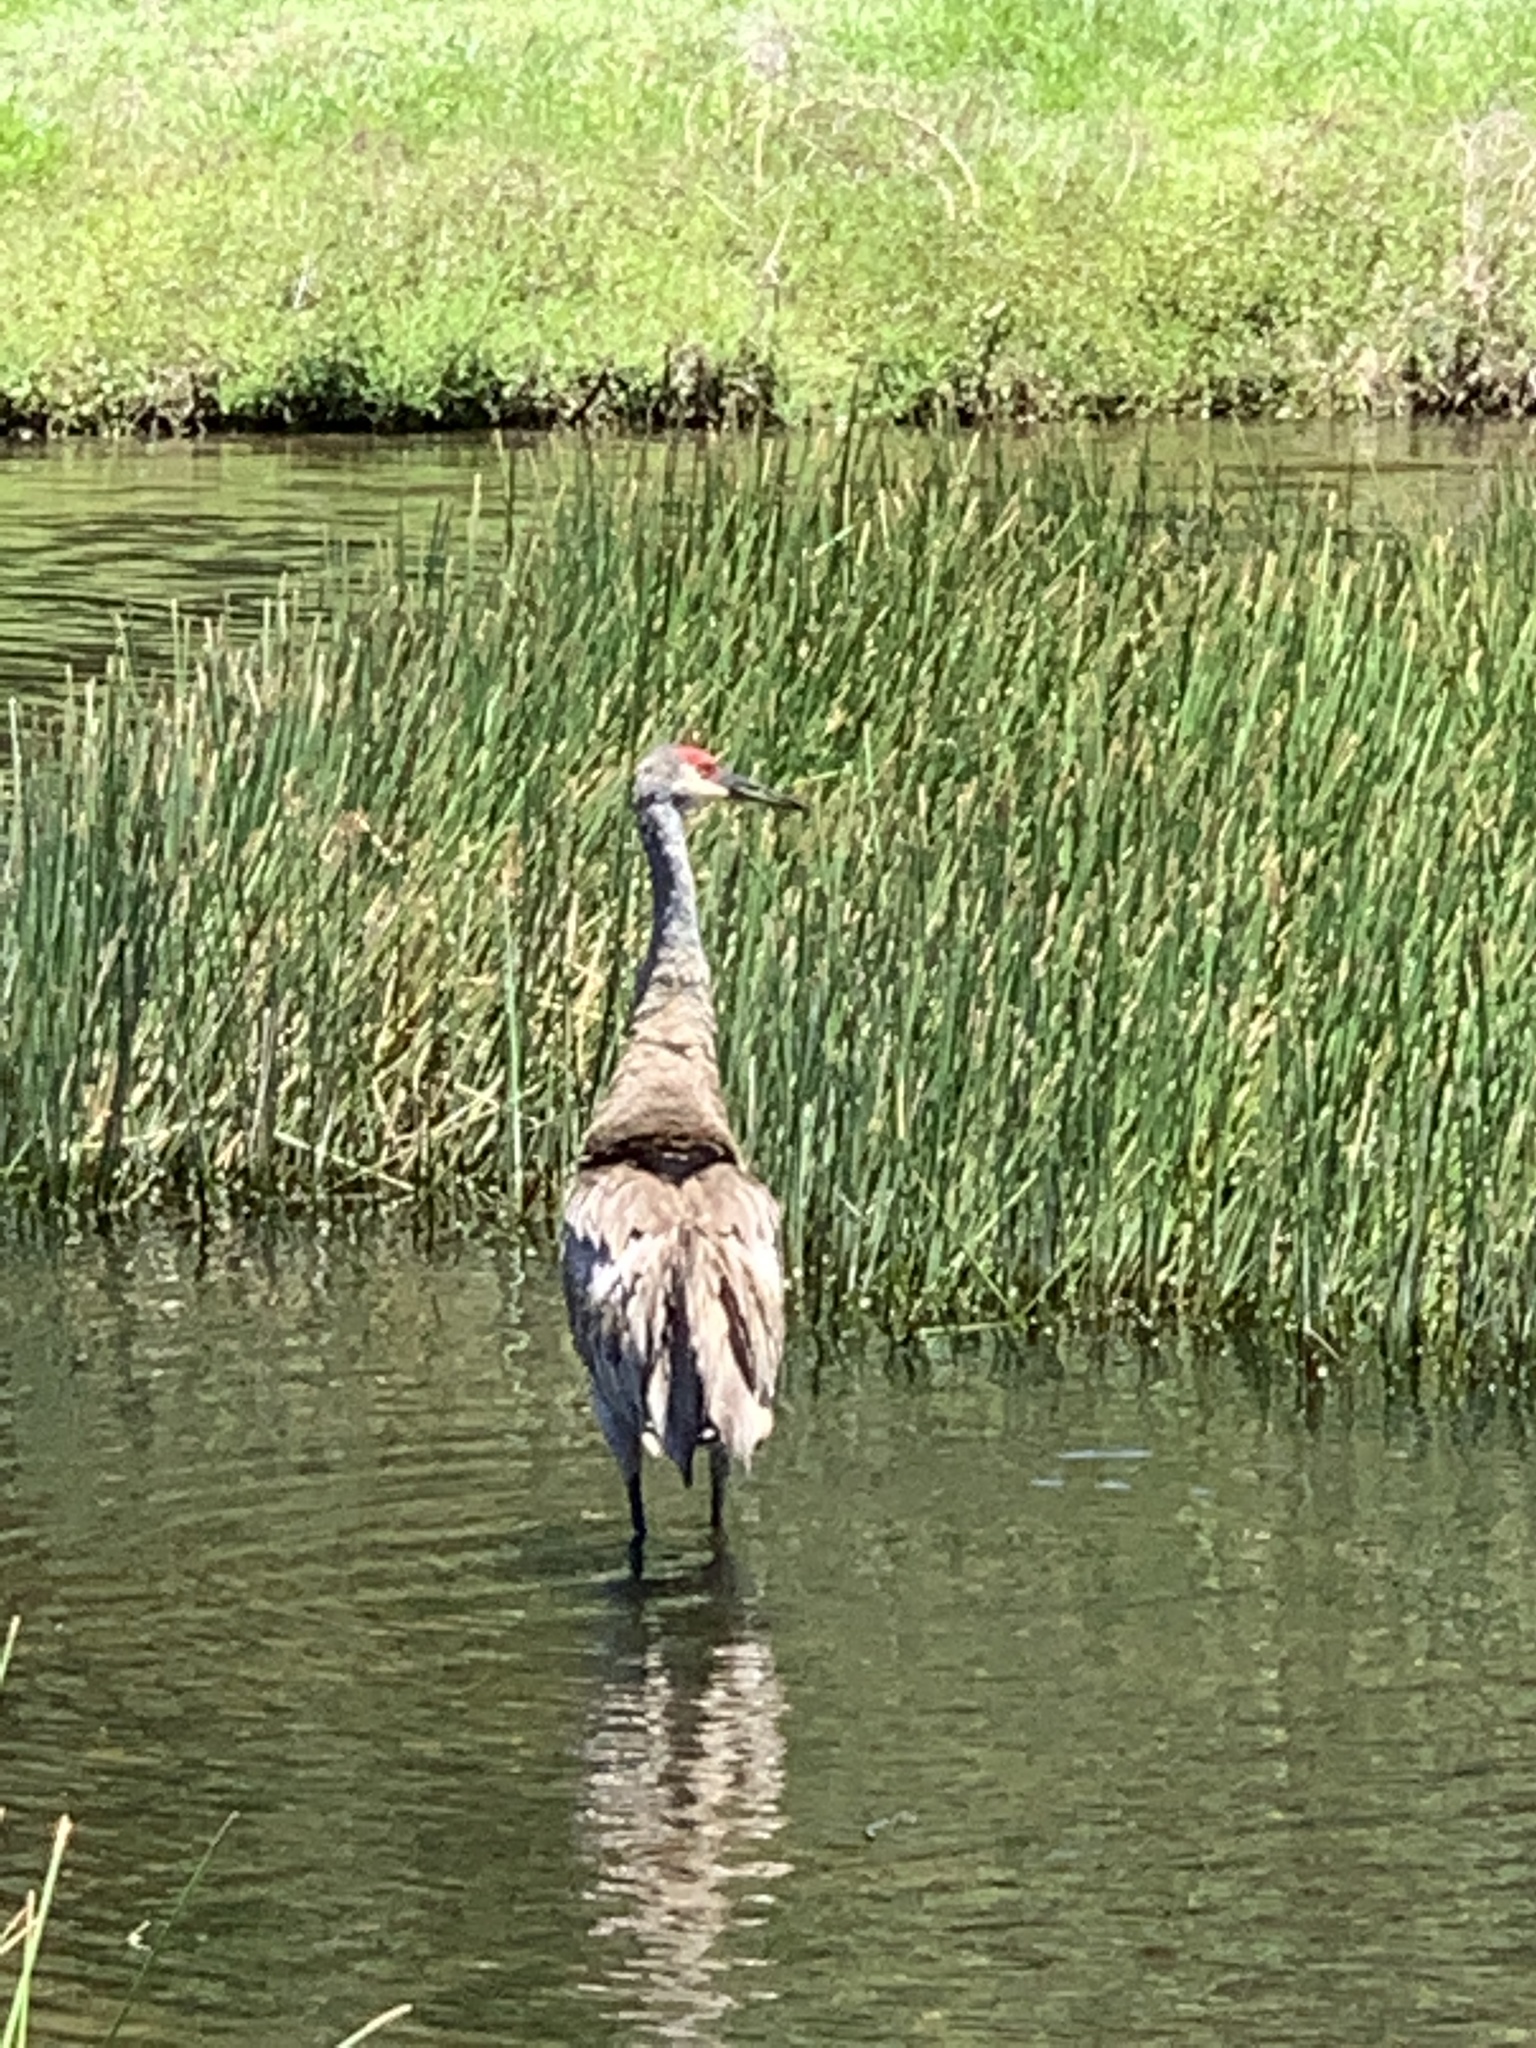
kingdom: Animalia
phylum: Chordata
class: Aves
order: Gruiformes
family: Gruidae
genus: Grus
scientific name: Grus canadensis
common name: Sandhill crane
